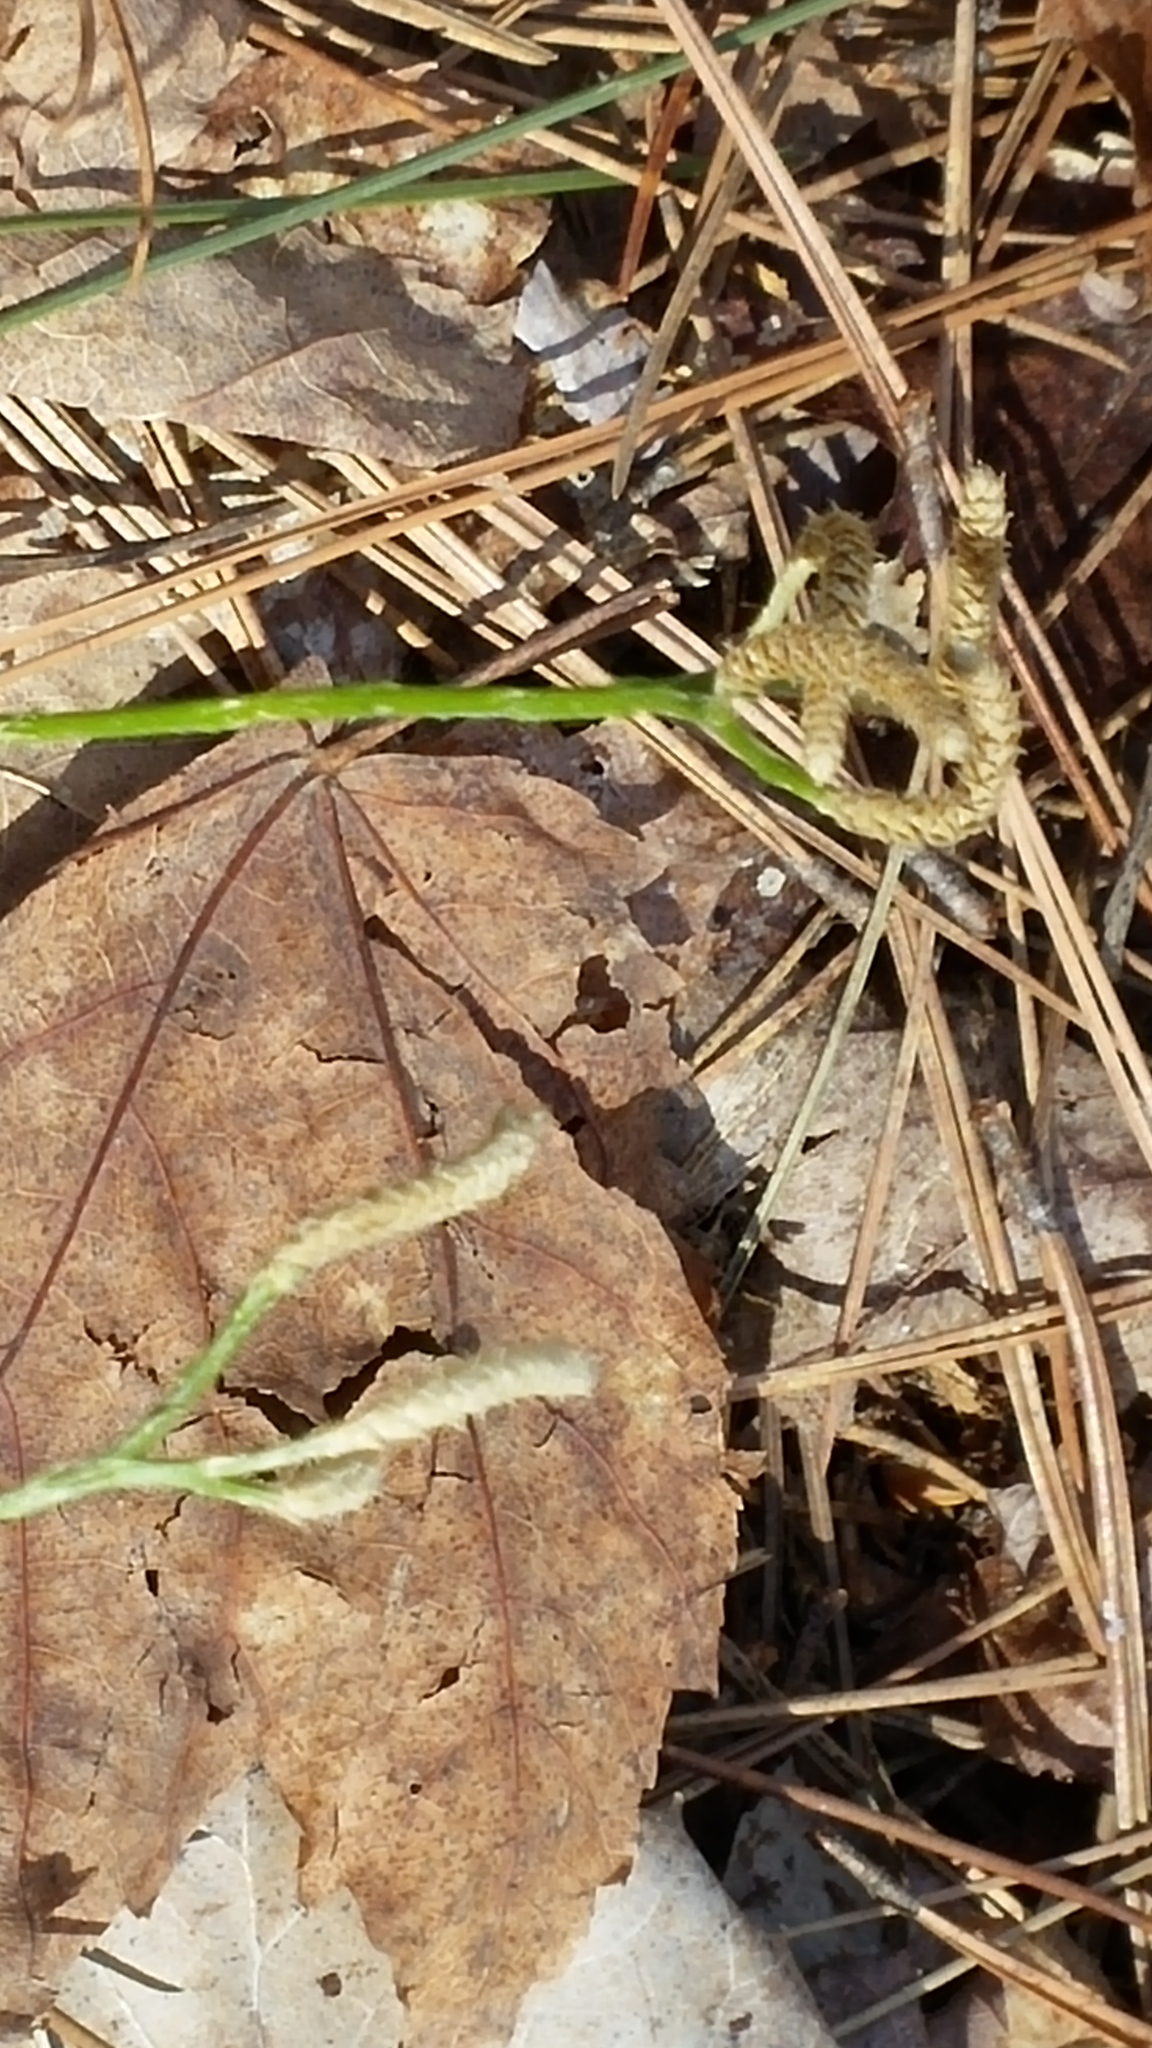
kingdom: Plantae
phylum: Tracheophyta
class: Lycopodiopsida
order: Lycopodiales
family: Lycopodiaceae
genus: Diphasiastrum
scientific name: Diphasiastrum digitatum
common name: Southern running-pine
